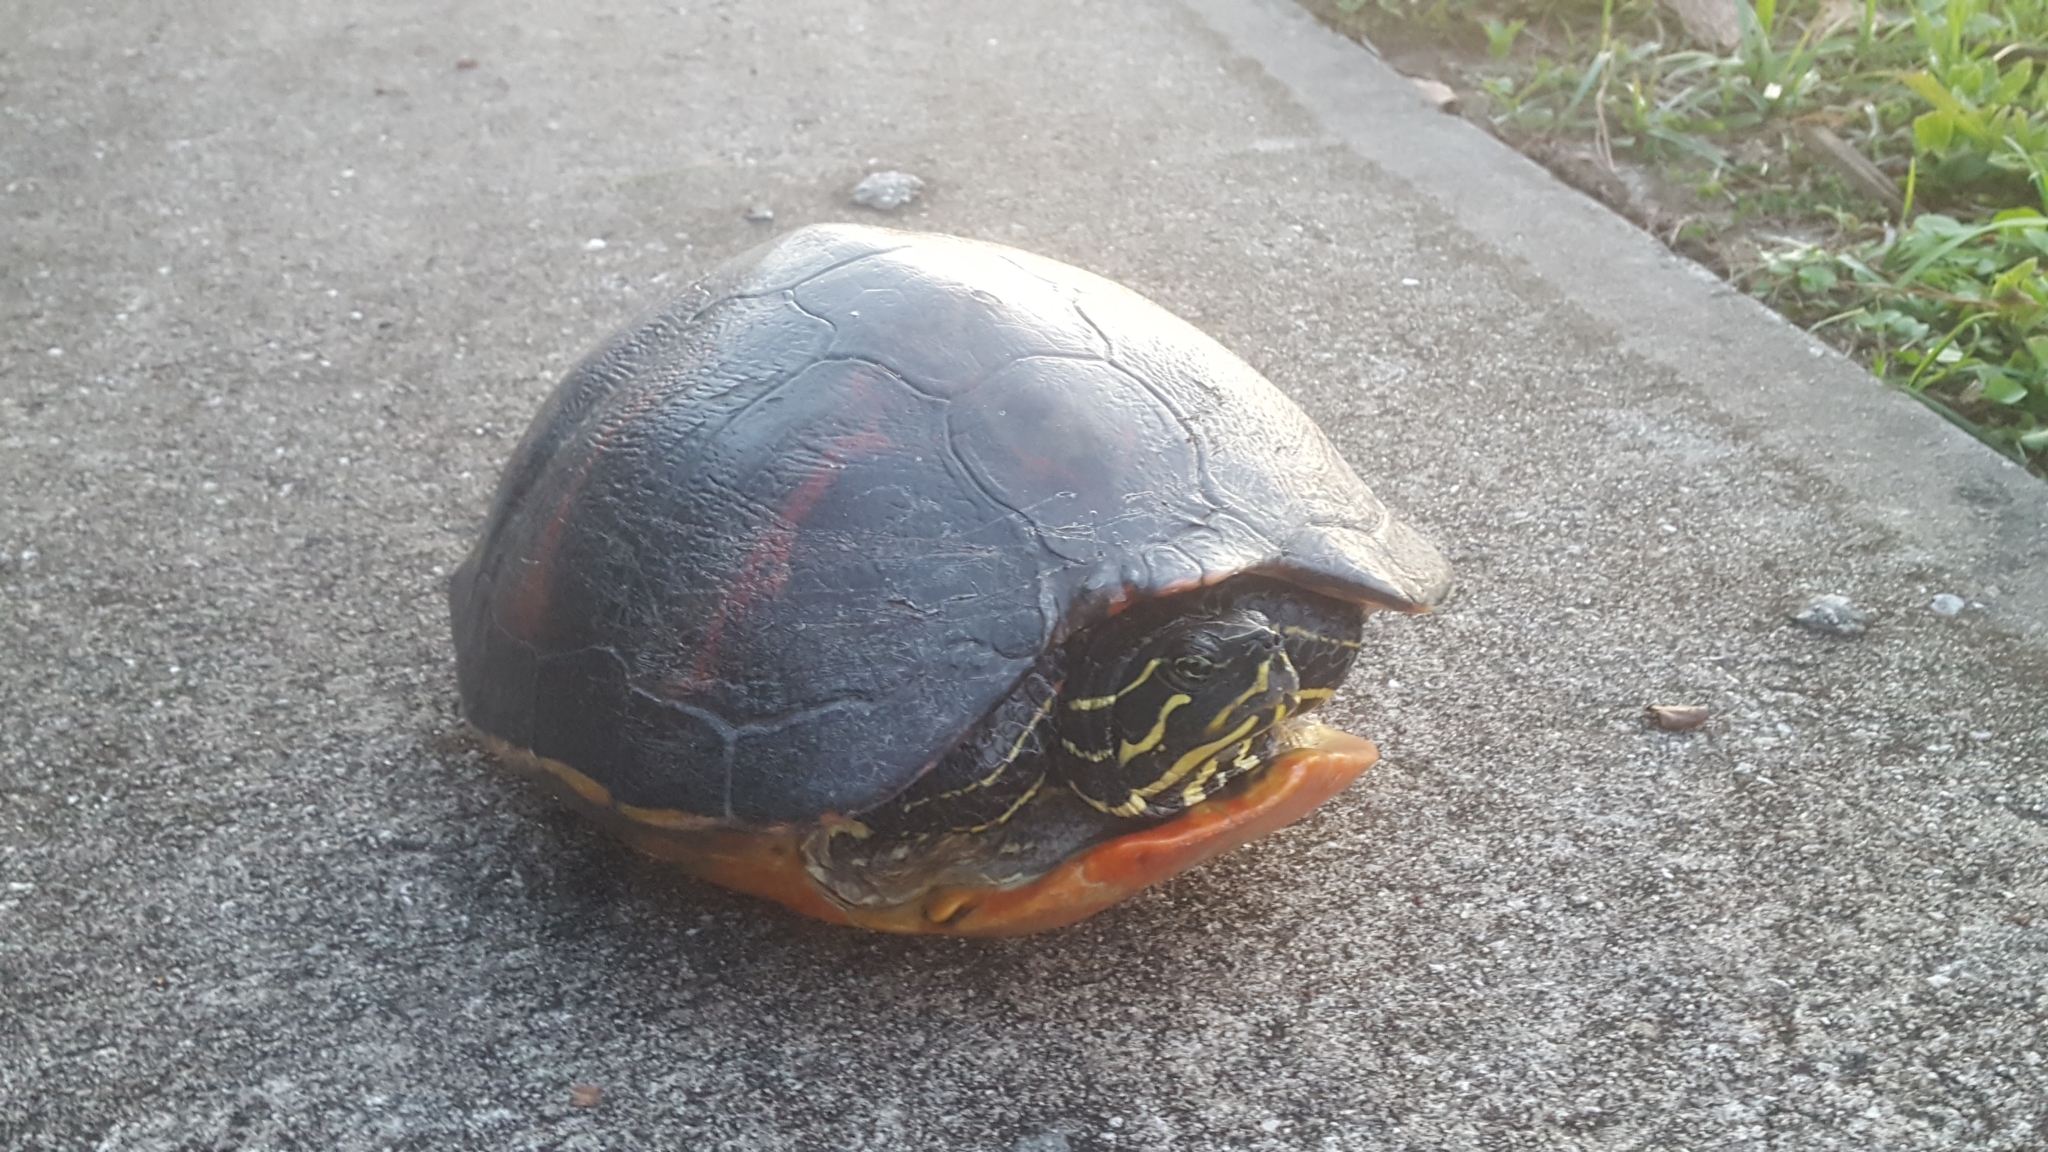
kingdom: Animalia
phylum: Chordata
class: Testudines
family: Emydidae
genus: Pseudemys
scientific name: Pseudemys nelsoni
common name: Florida red-bellied turtle
